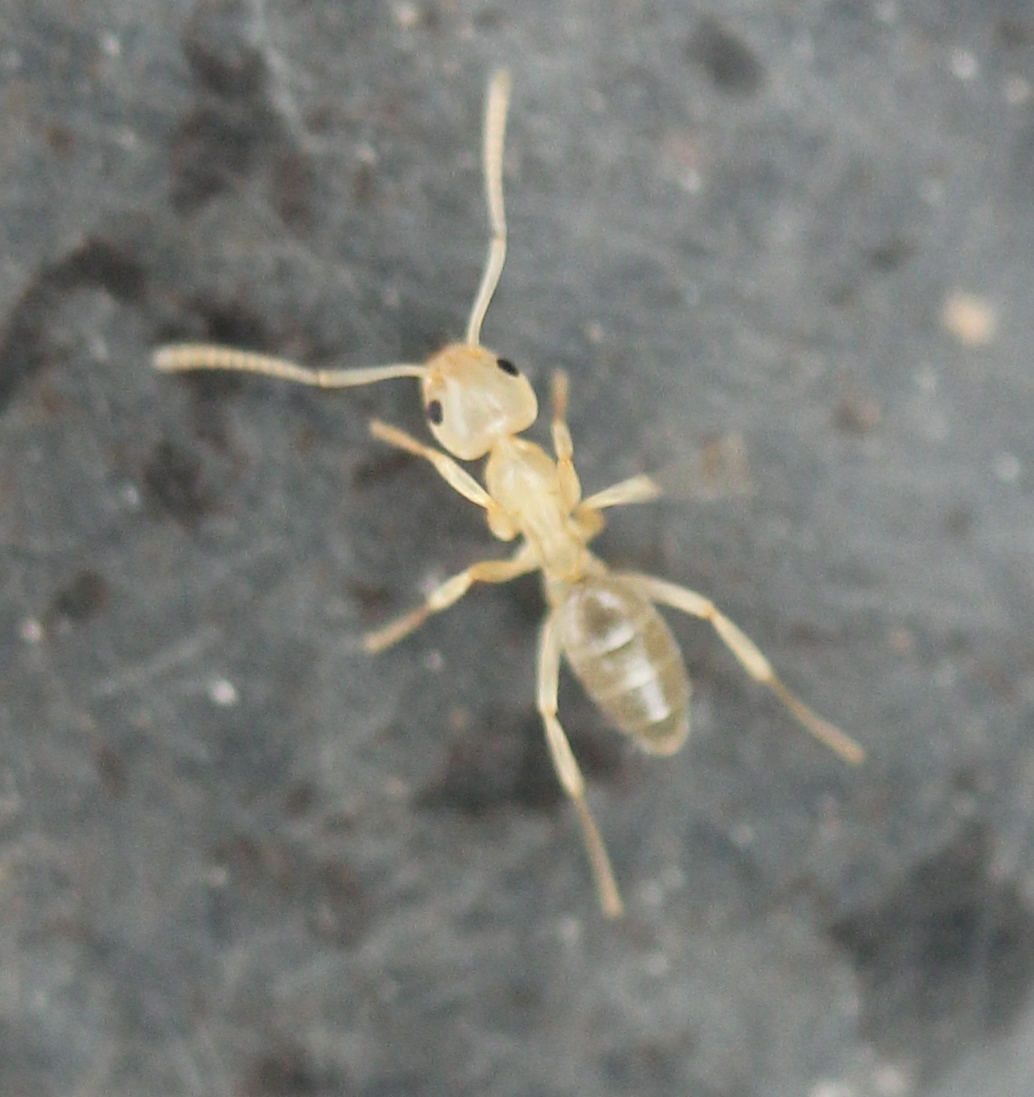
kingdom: Animalia
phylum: Arthropoda
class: Insecta
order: Hymenoptera
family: Formicidae
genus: Tapinoma
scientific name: Tapinoma sessile
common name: Odorous house ant
